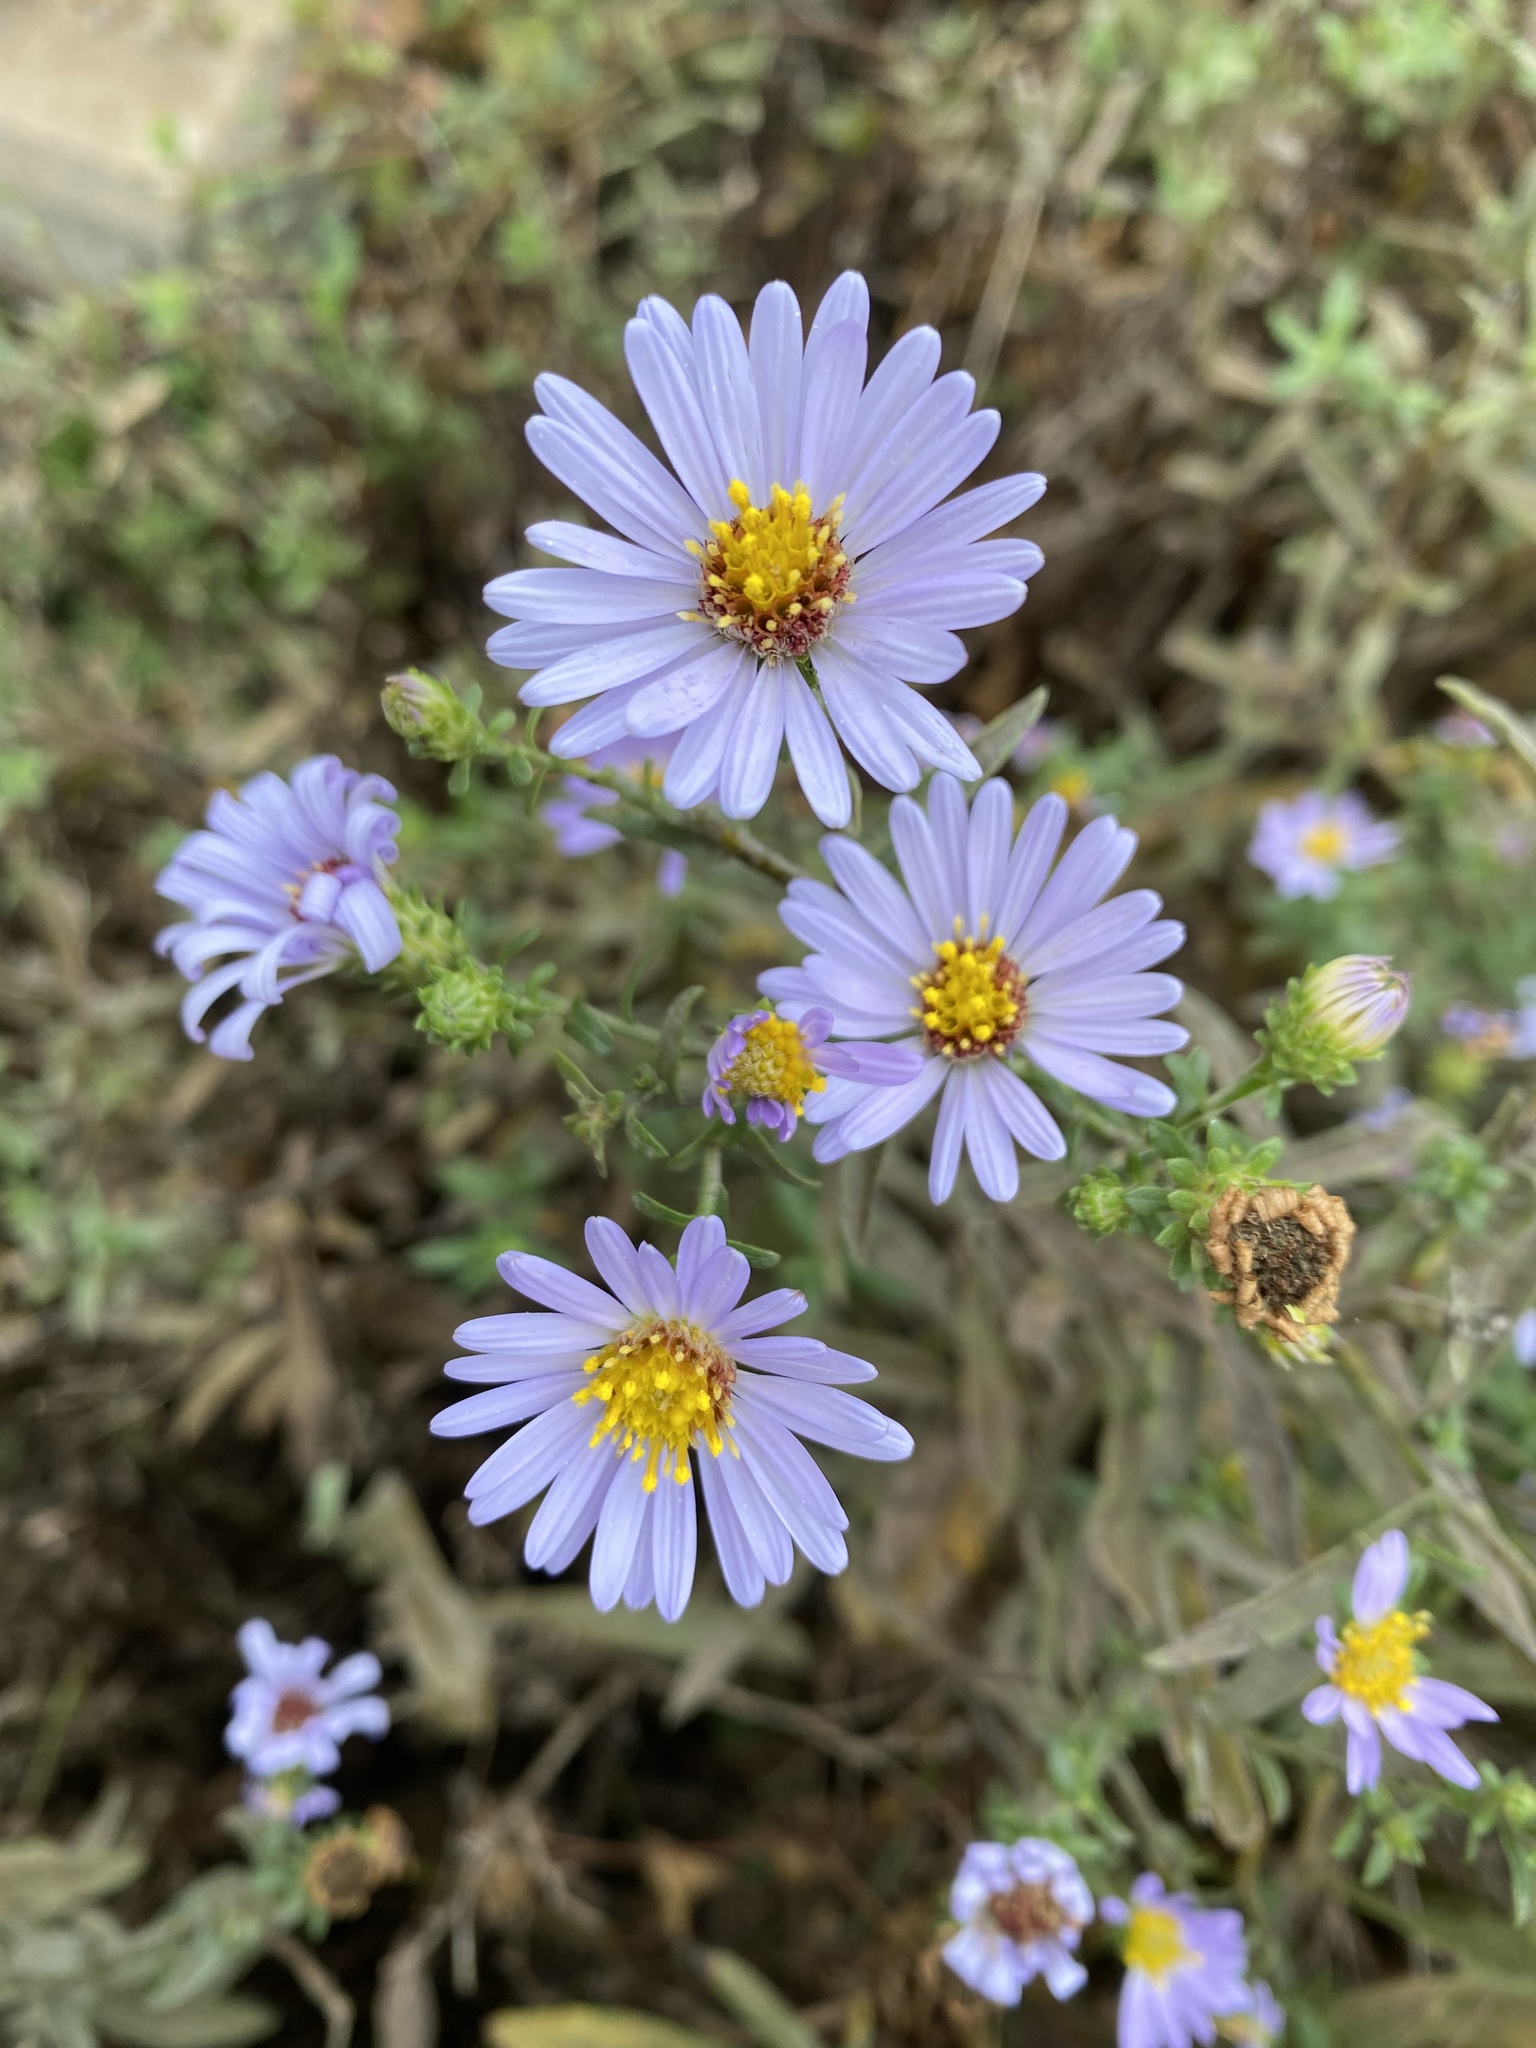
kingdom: Plantae
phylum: Tracheophyta
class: Magnoliopsida
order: Asterales
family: Asteraceae
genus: Symphyotrichum
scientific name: Symphyotrichum chilense
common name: Pacific aster
